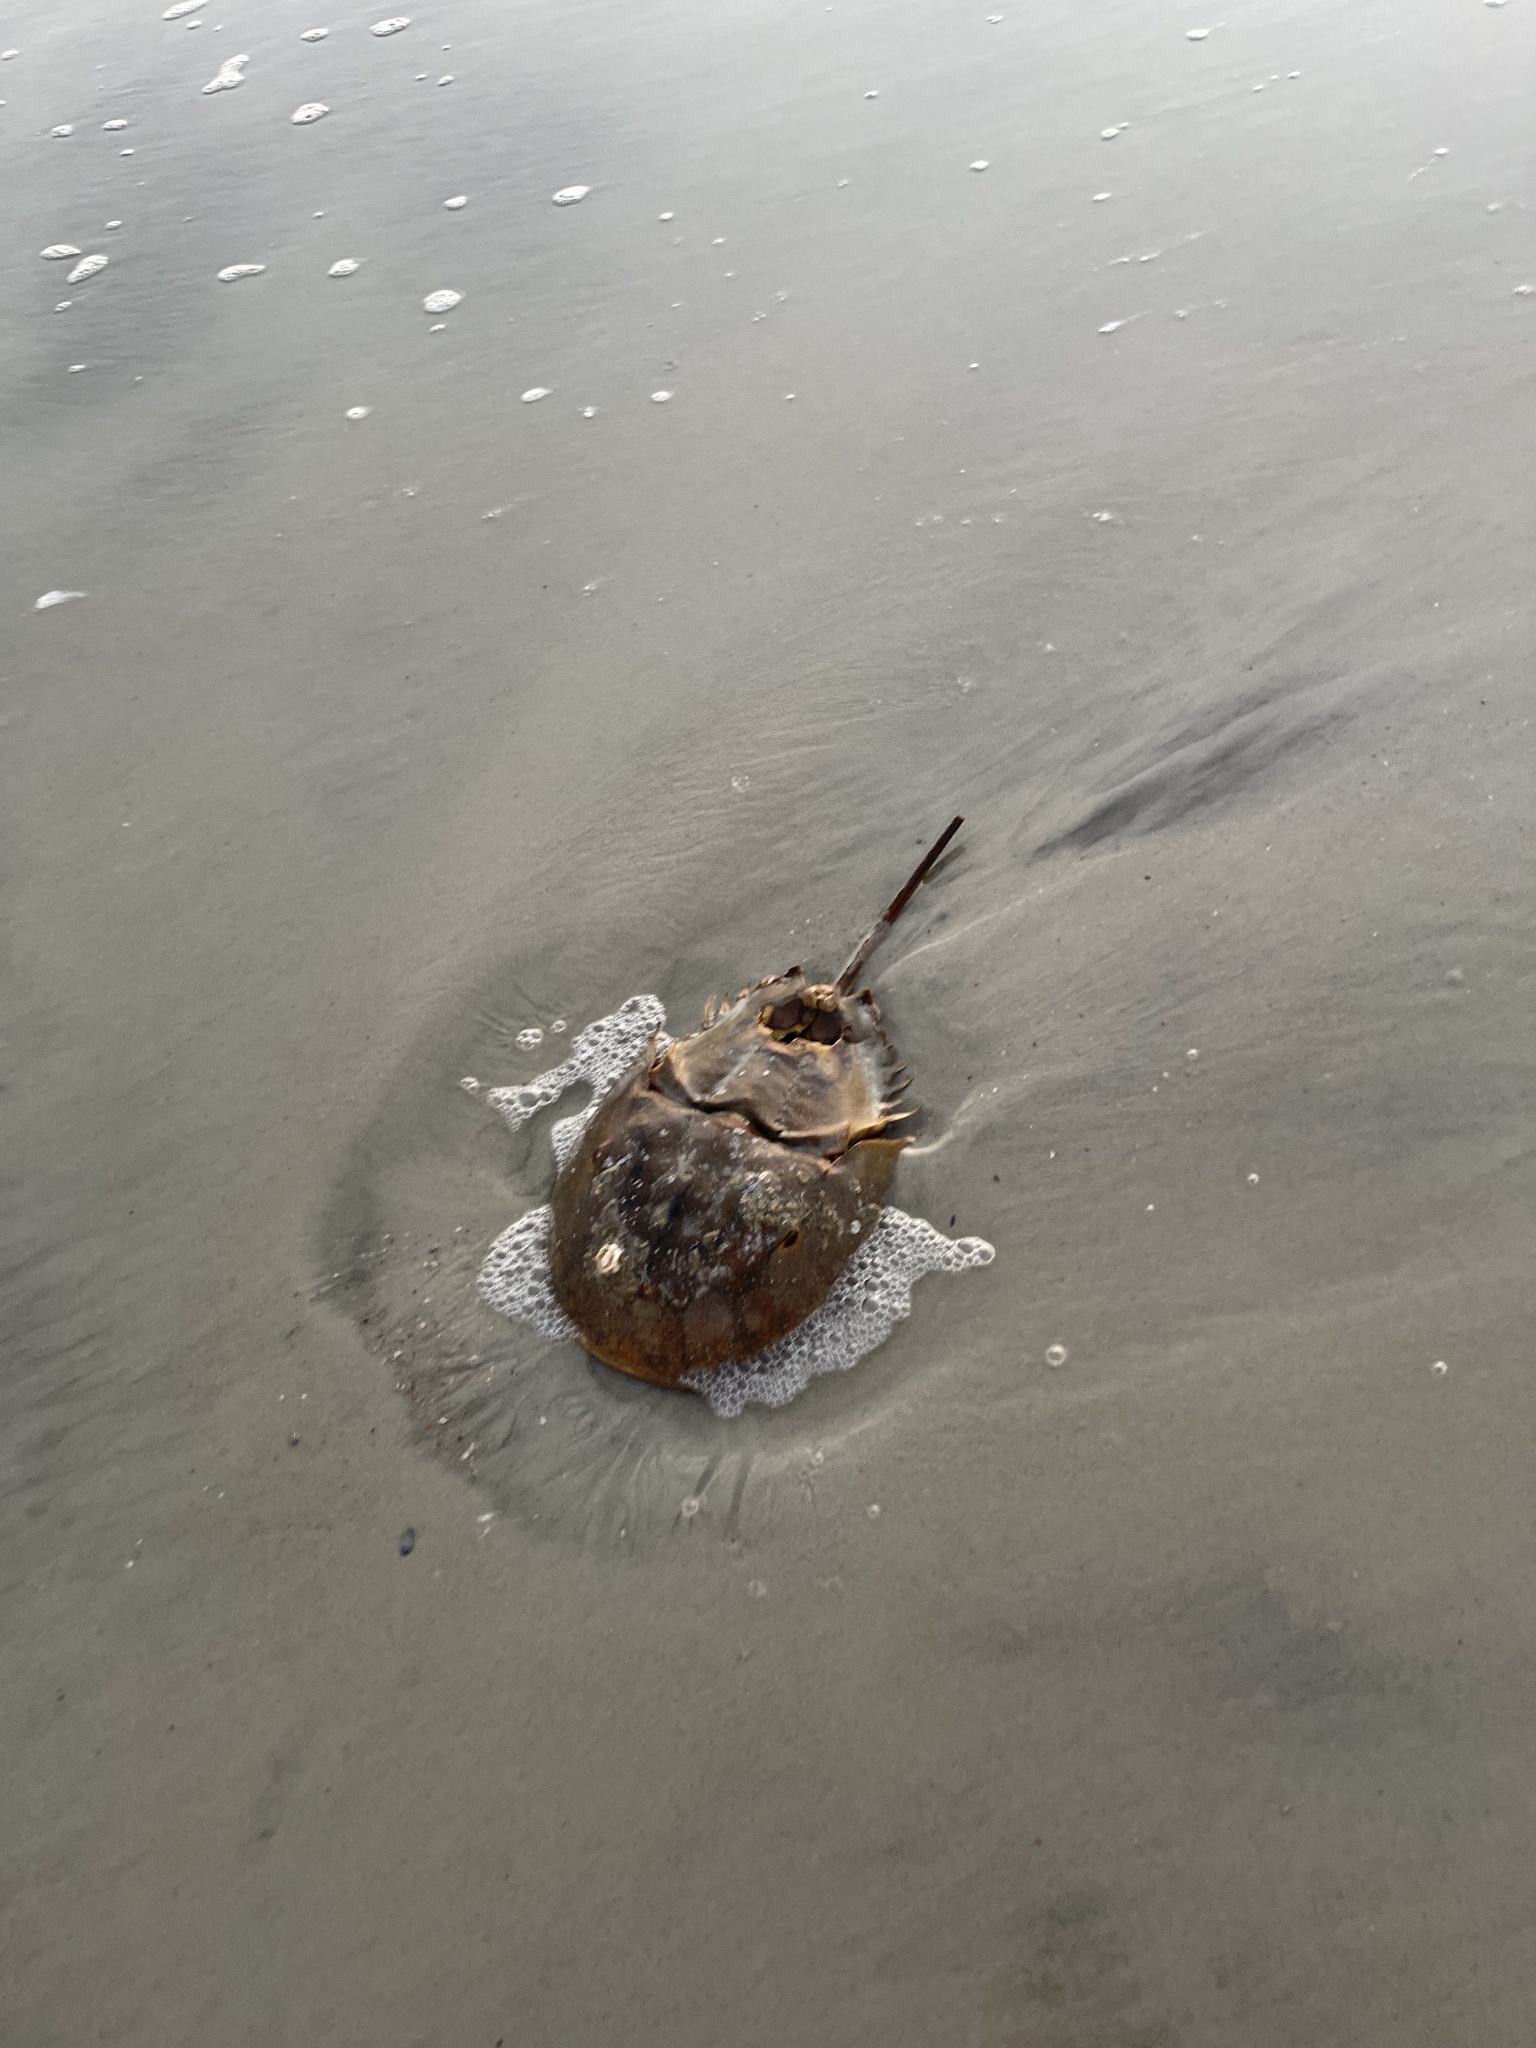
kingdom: Animalia
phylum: Arthropoda
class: Merostomata
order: Xiphosurida
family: Limulidae
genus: Limulus
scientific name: Limulus polyphemus
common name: Horseshoe crab
